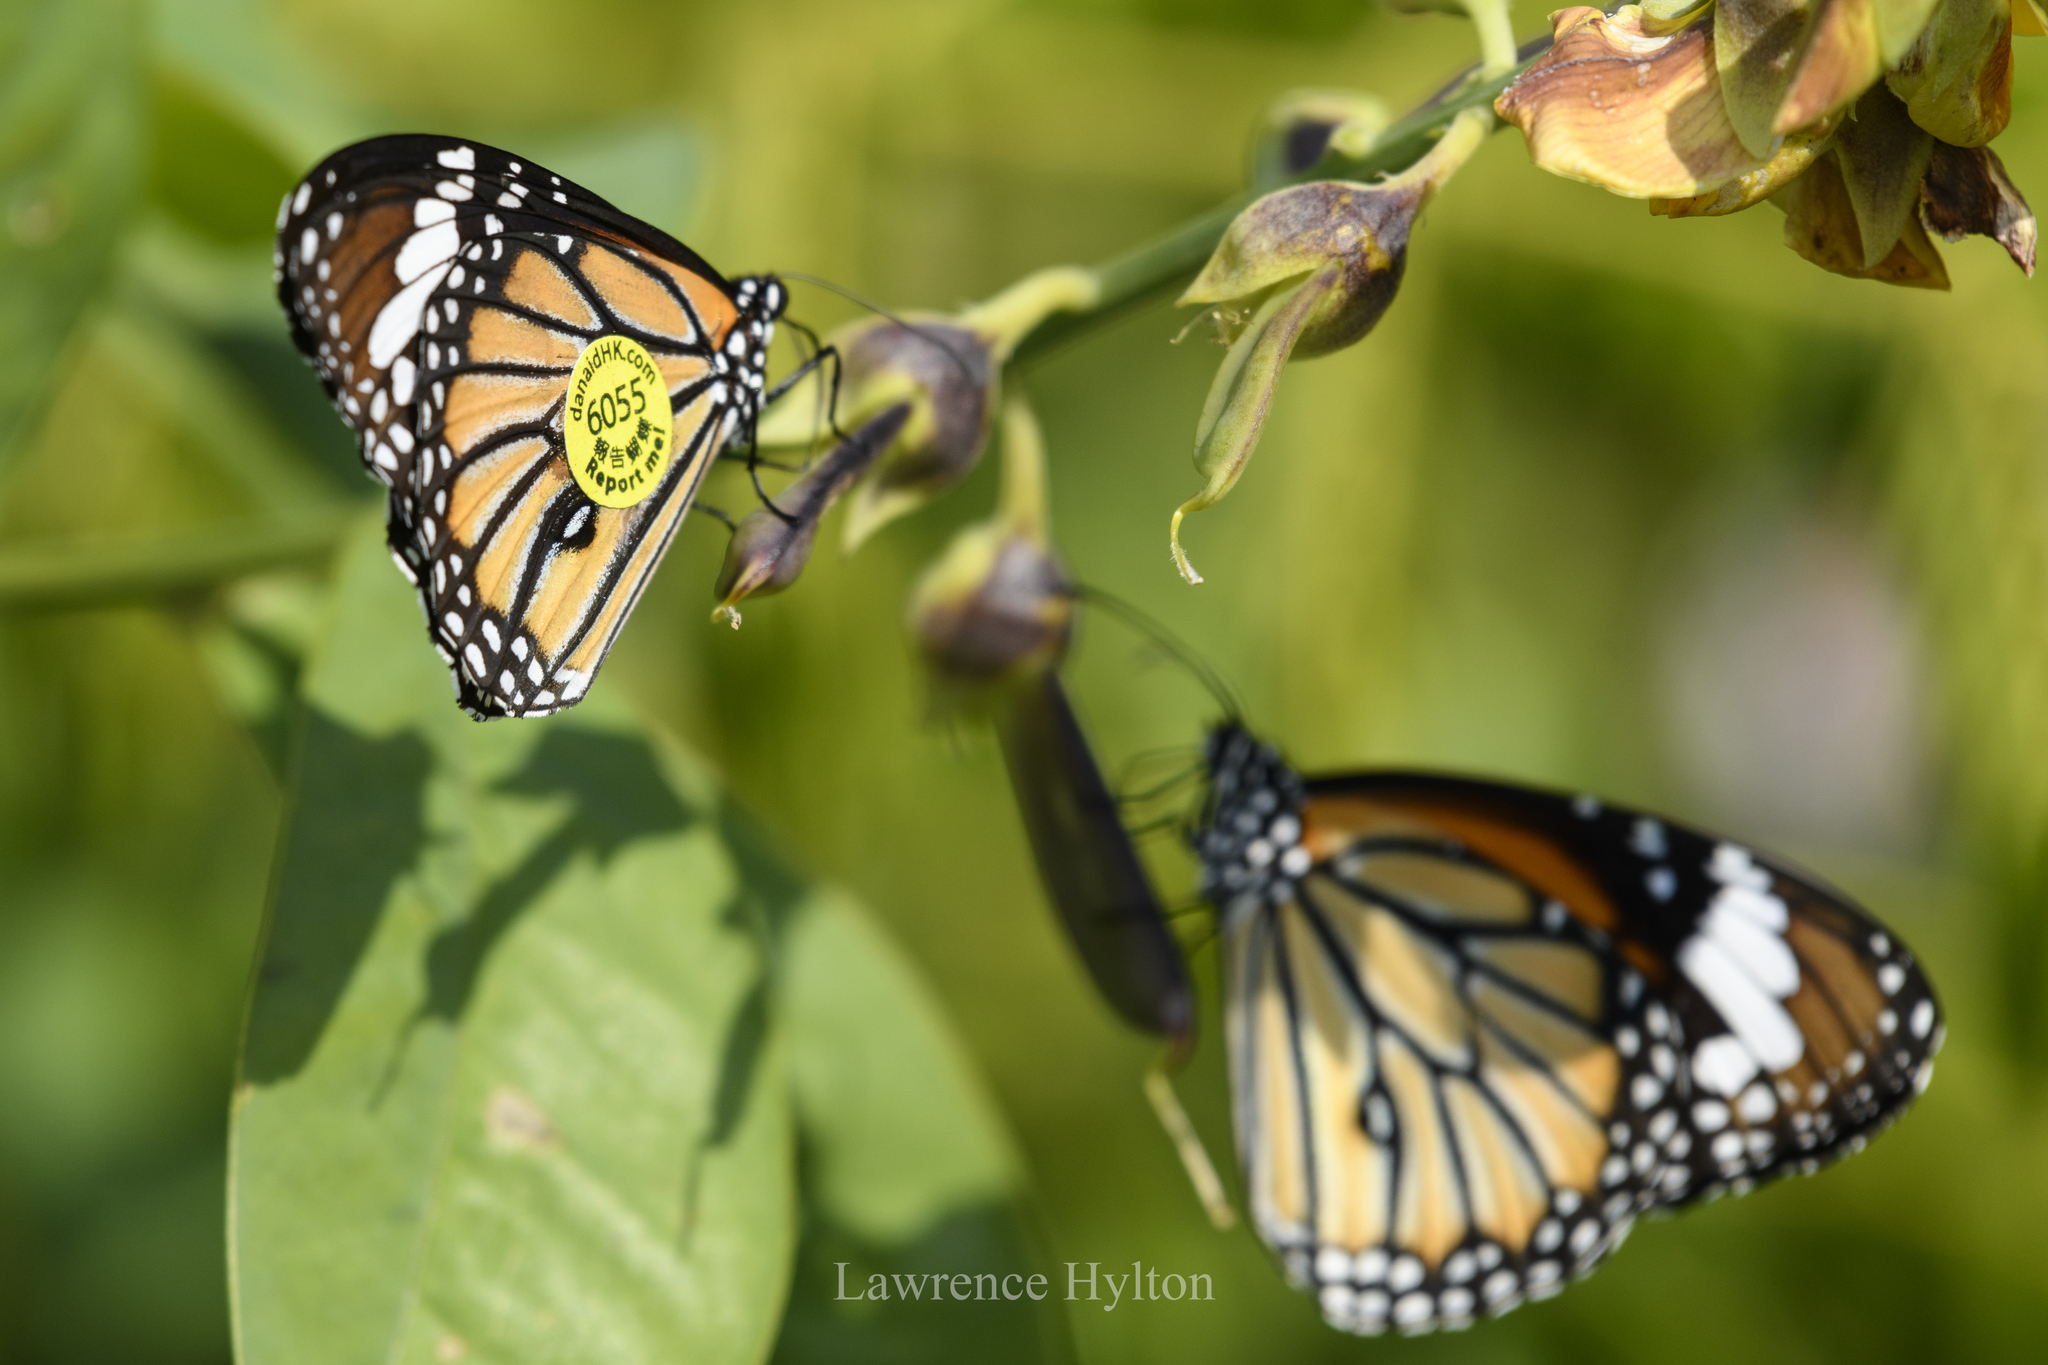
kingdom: Animalia
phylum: Arthropoda
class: Insecta
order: Lepidoptera
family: Nymphalidae
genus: Danaus
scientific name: Danaus genutia
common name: Common tiger butterfly
